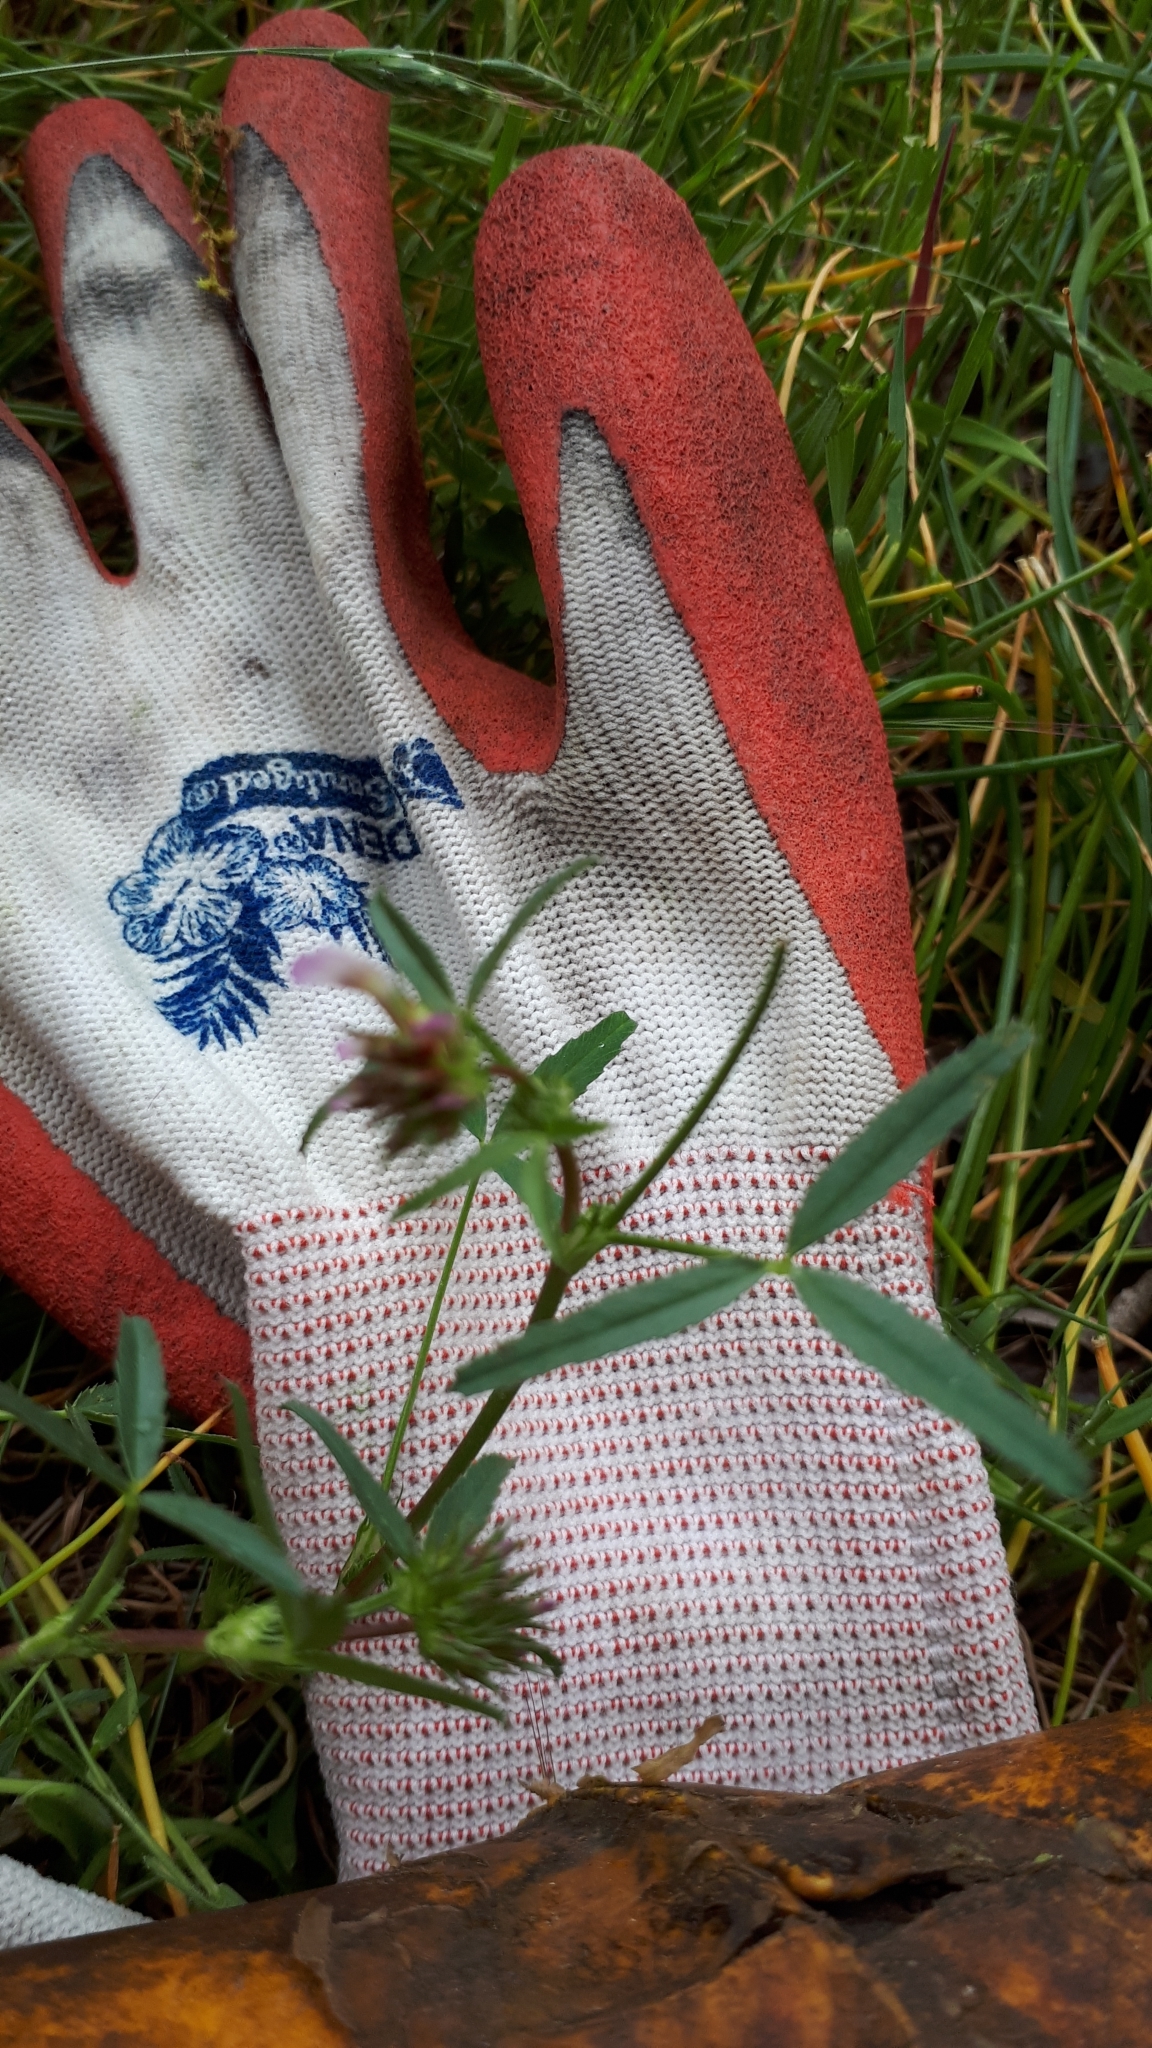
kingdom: Plantae
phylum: Tracheophyta
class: Magnoliopsida
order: Fabales
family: Fabaceae
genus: Trifolium
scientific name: Trifolium willdenovii
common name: Tomcat clover
